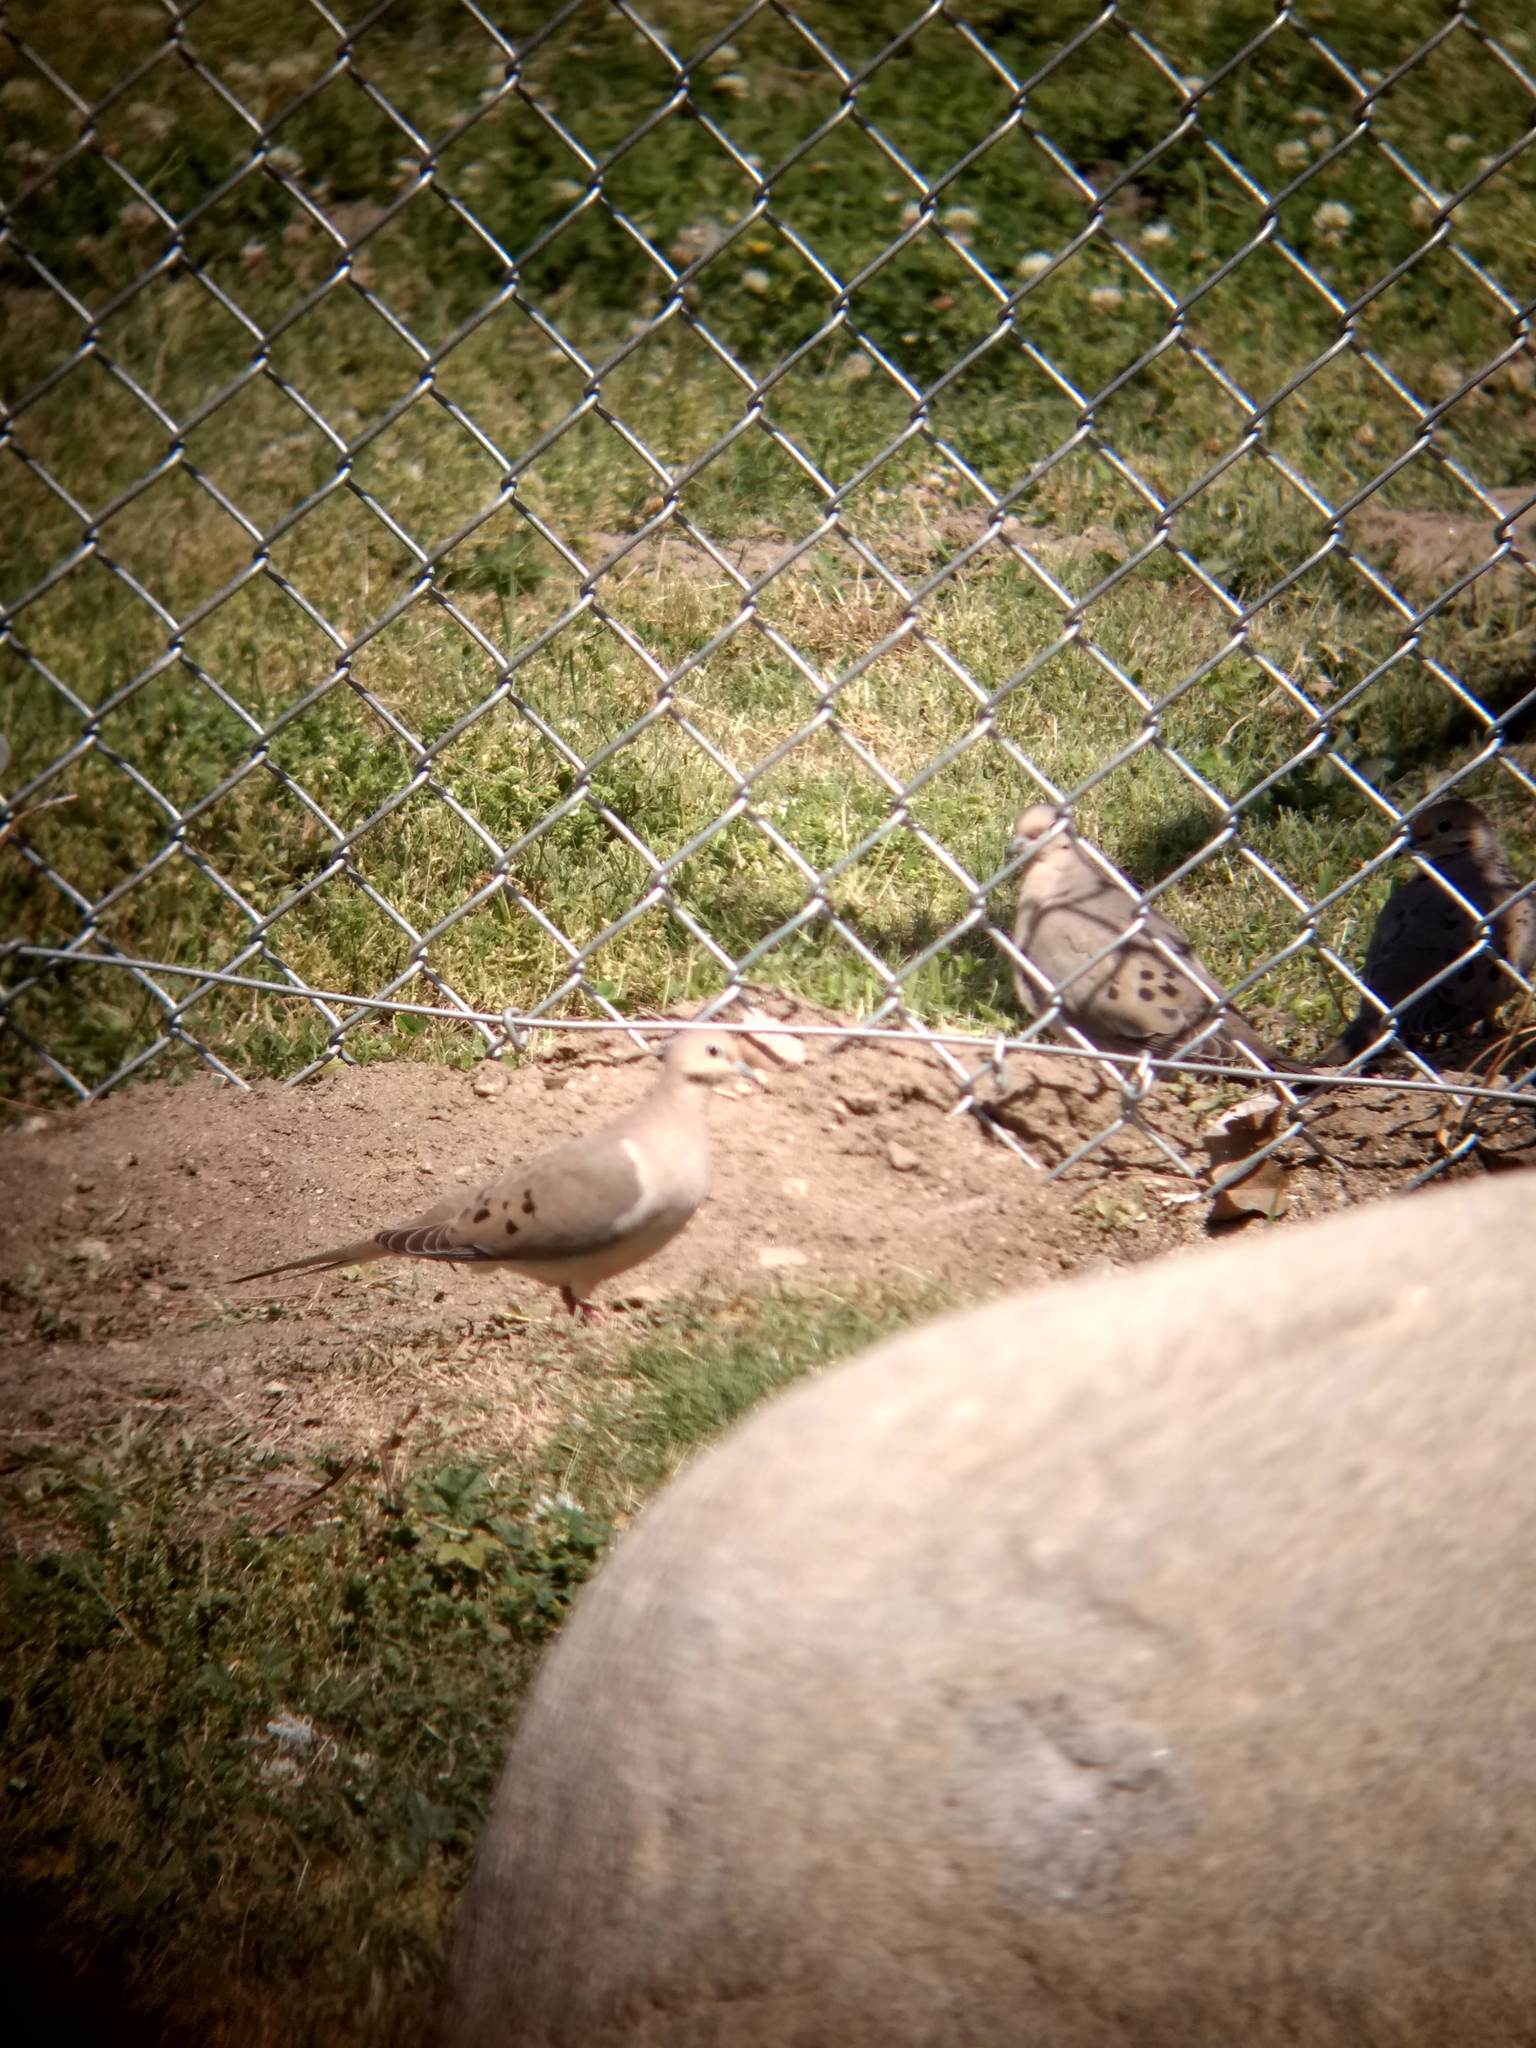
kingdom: Animalia
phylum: Chordata
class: Aves
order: Columbiformes
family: Columbidae
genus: Zenaida
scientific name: Zenaida macroura
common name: Mourning dove
